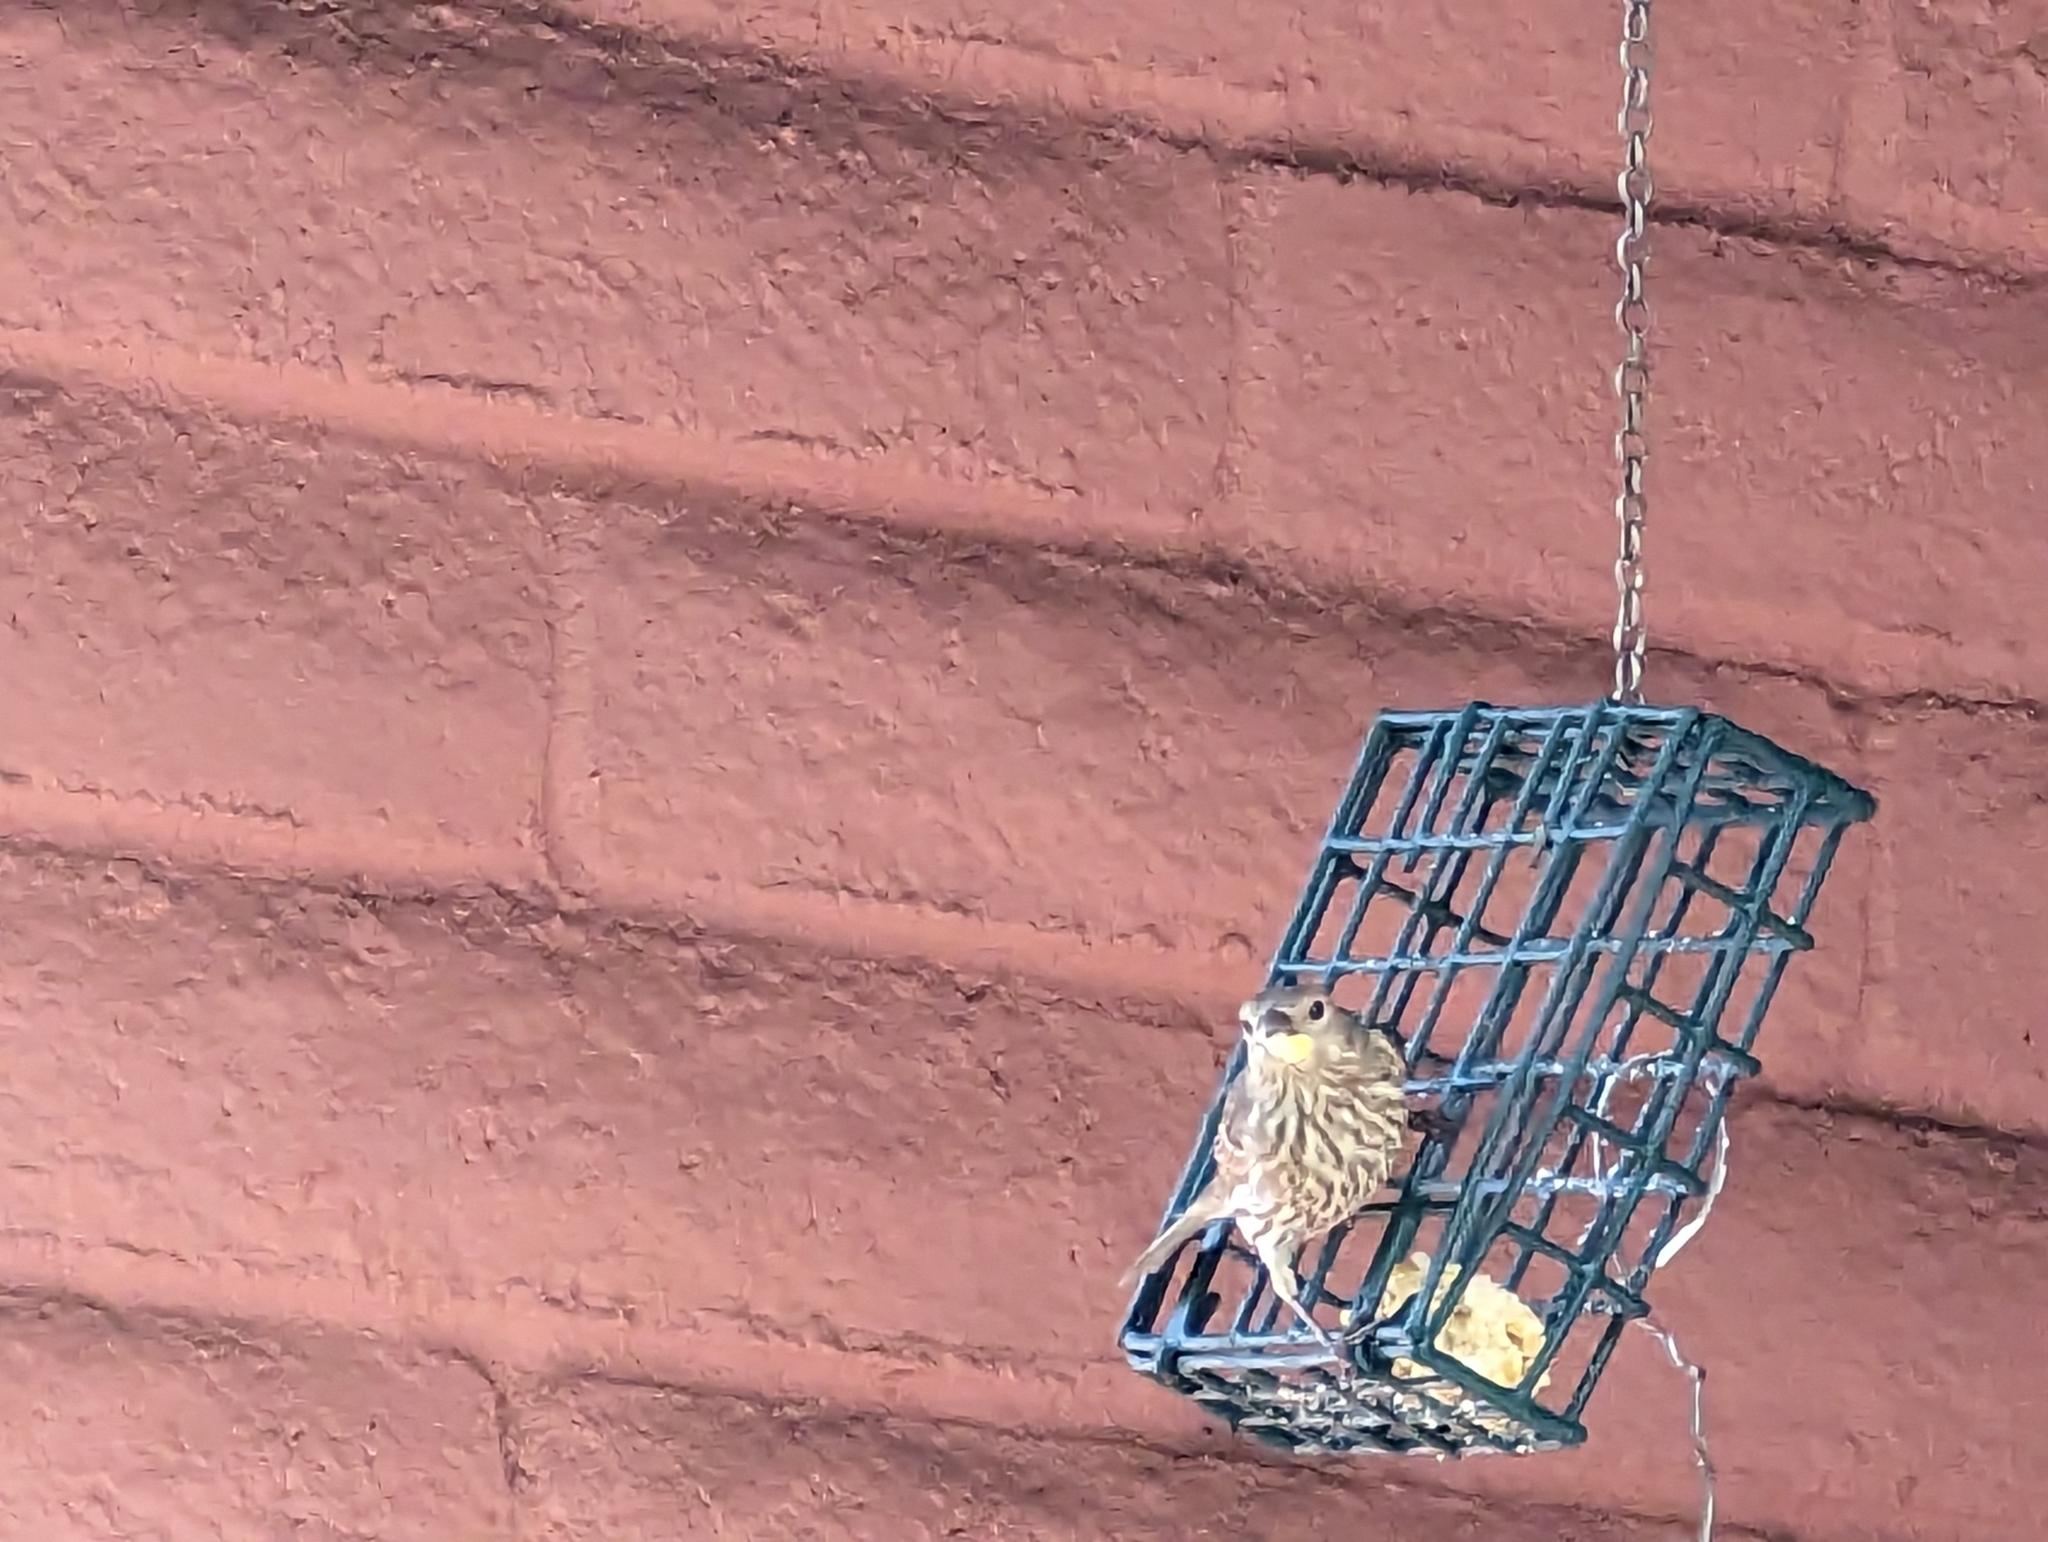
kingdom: Animalia
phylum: Chordata
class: Aves
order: Passeriformes
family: Fringillidae
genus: Haemorhous
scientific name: Haemorhous mexicanus
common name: House finch
